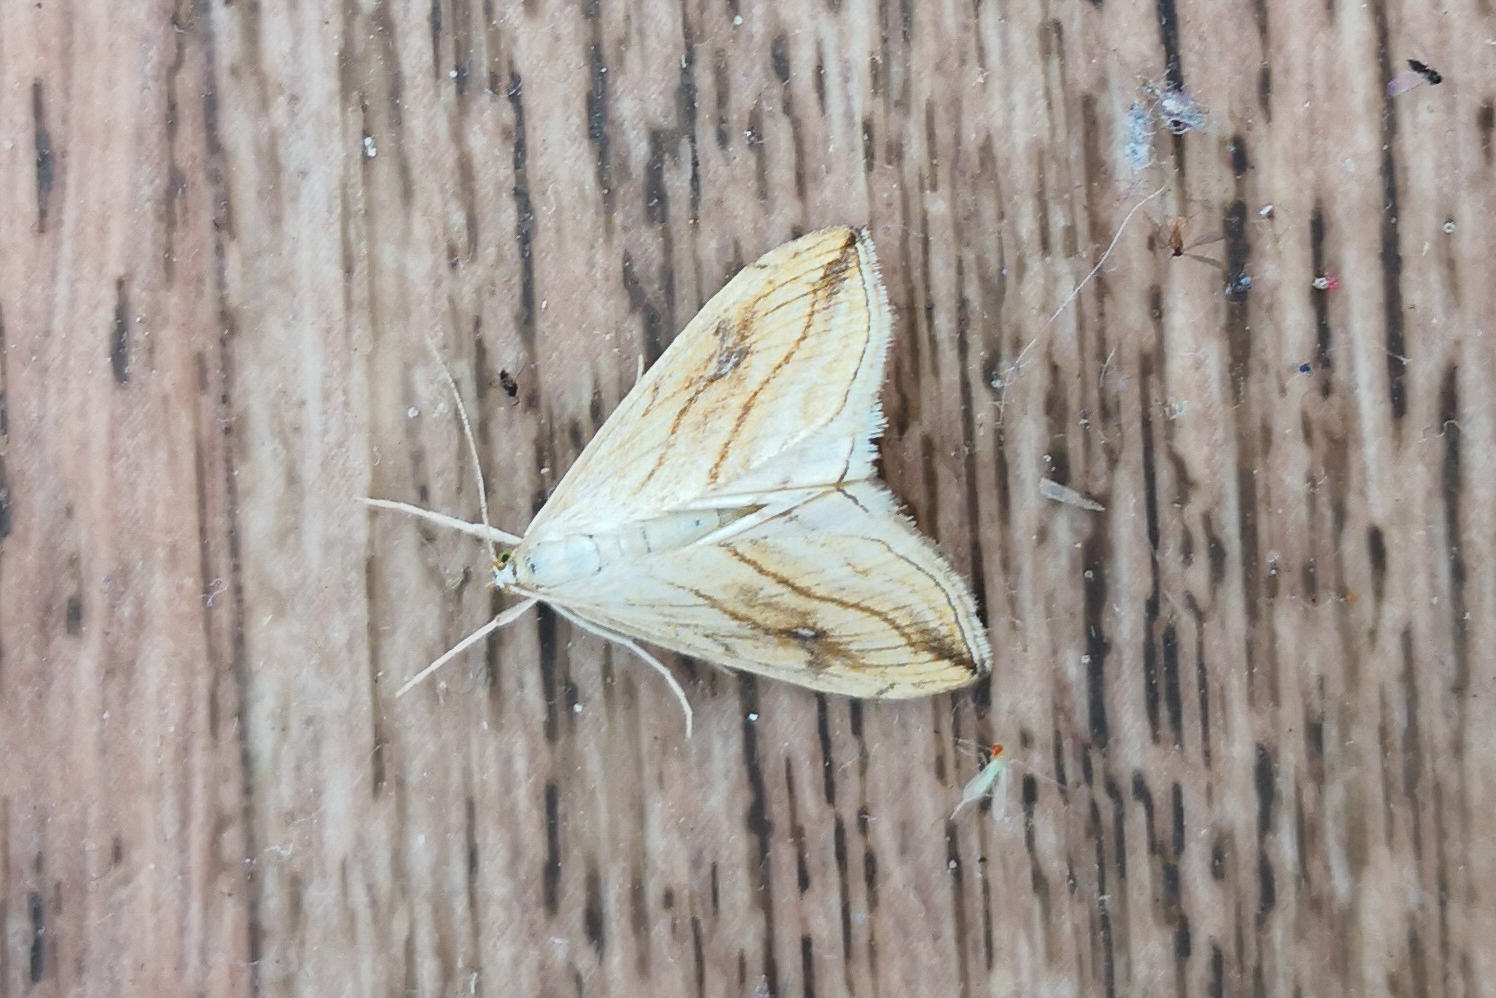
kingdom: Animalia
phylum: Arthropoda
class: Insecta
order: Lepidoptera
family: Crambidae
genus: Evergestis
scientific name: Evergestis forficalis
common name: Garden pebble
